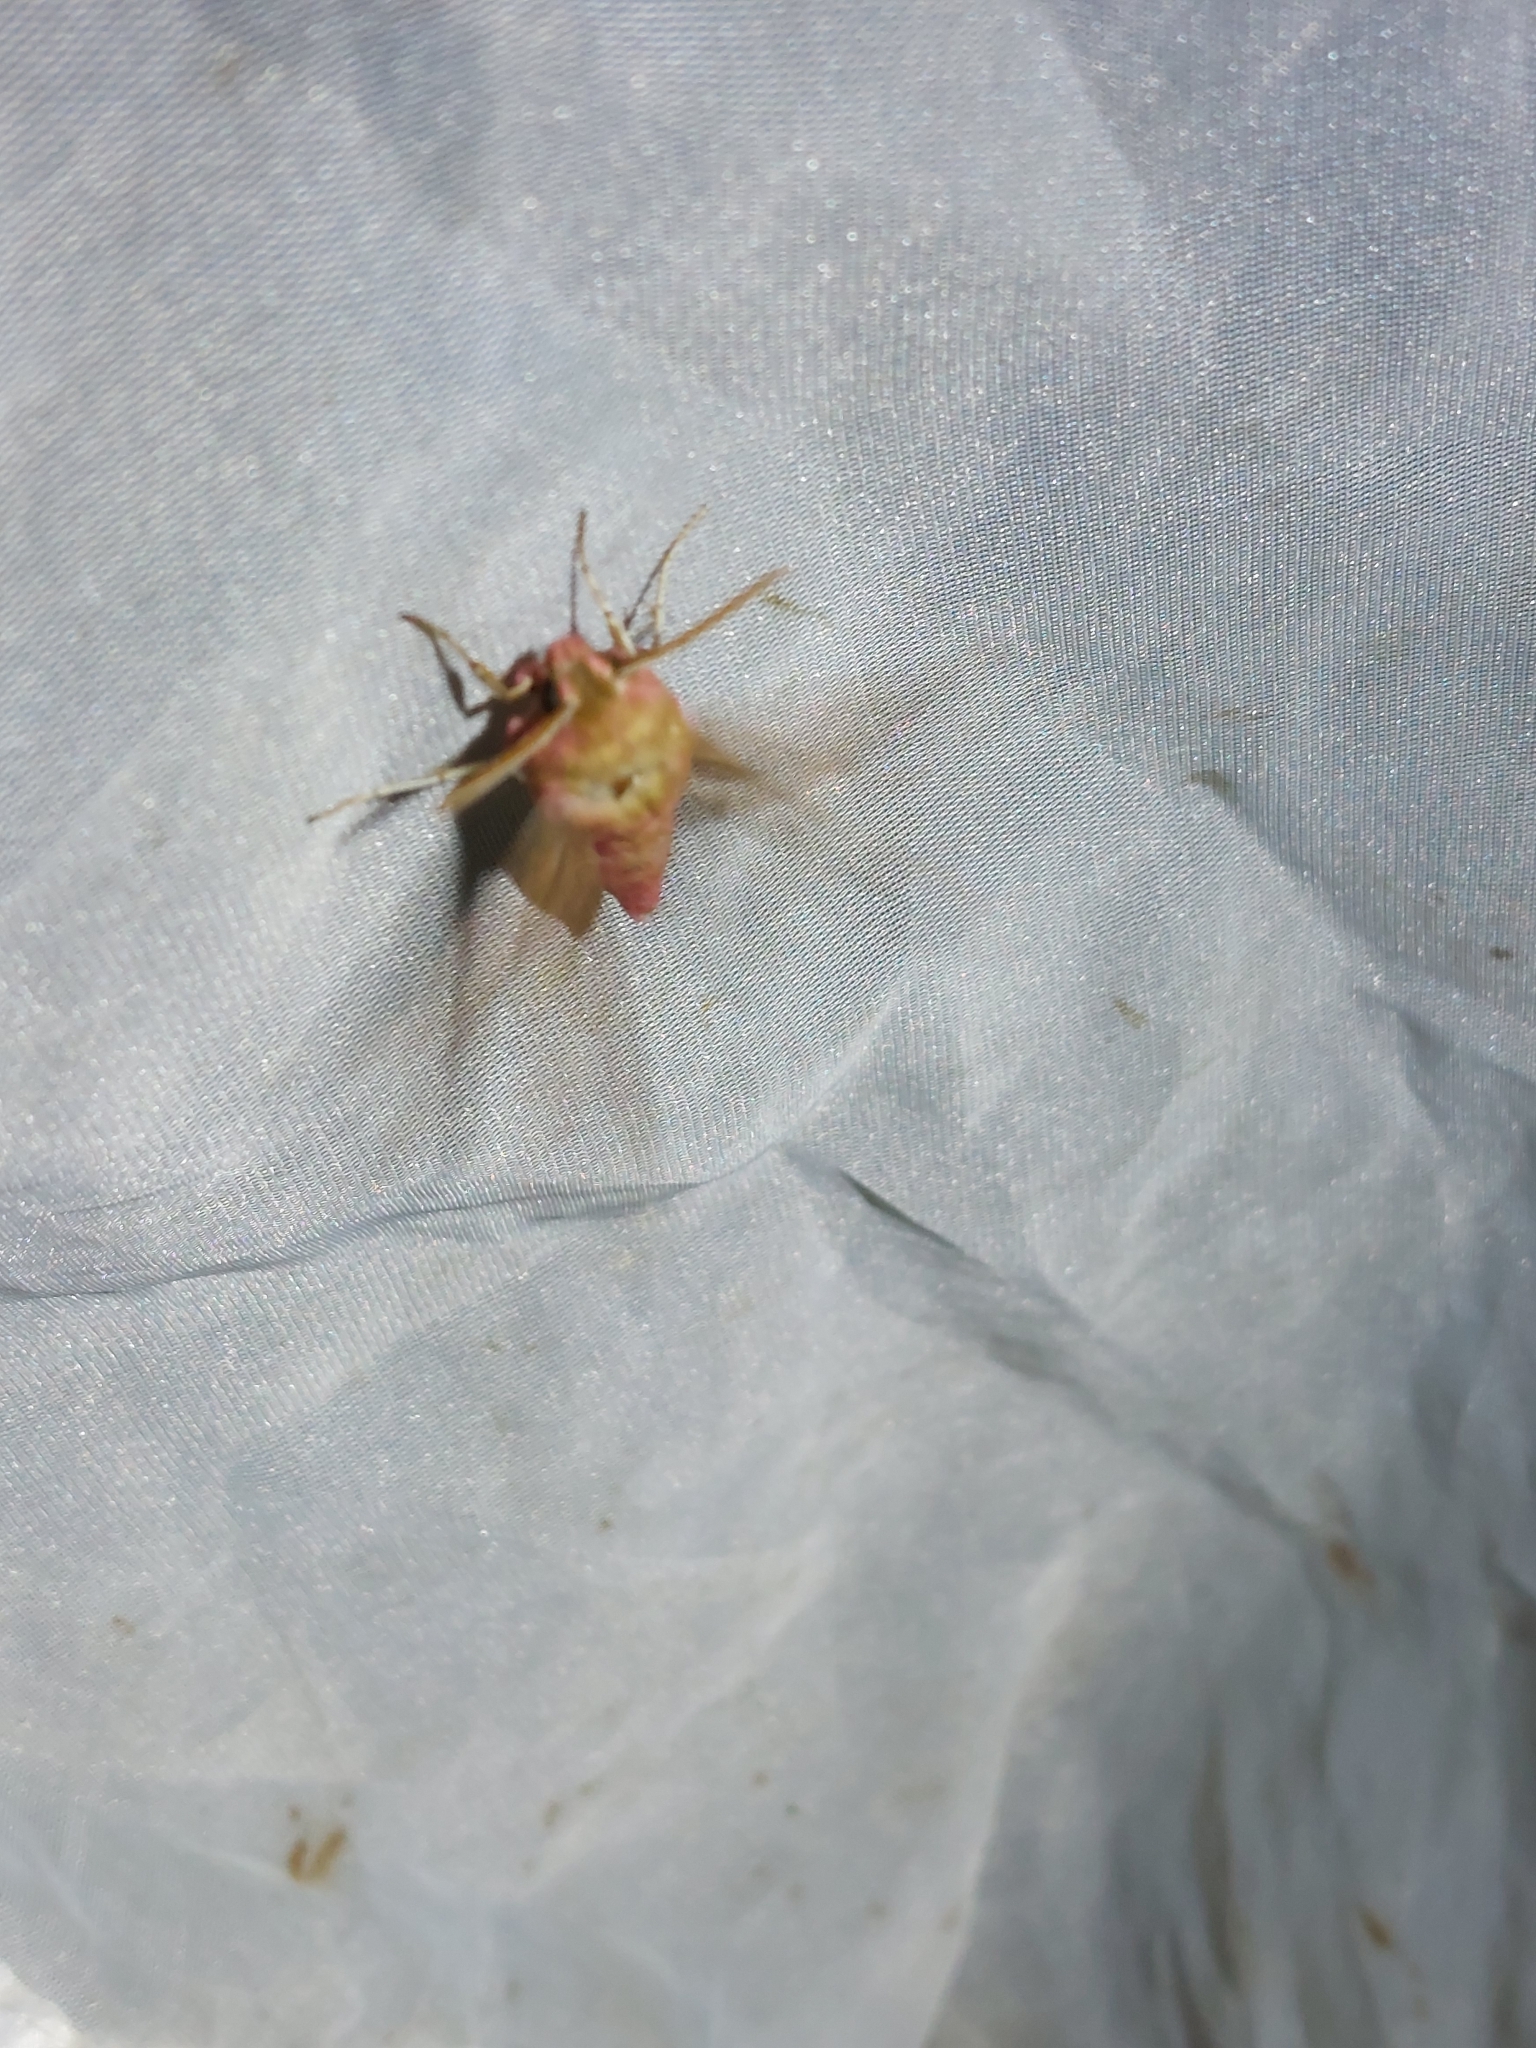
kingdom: Animalia
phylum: Arthropoda
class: Insecta
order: Lepidoptera
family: Sphingidae
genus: Deilephila
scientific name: Deilephila porcellus
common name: Small elephant hawk-moth
